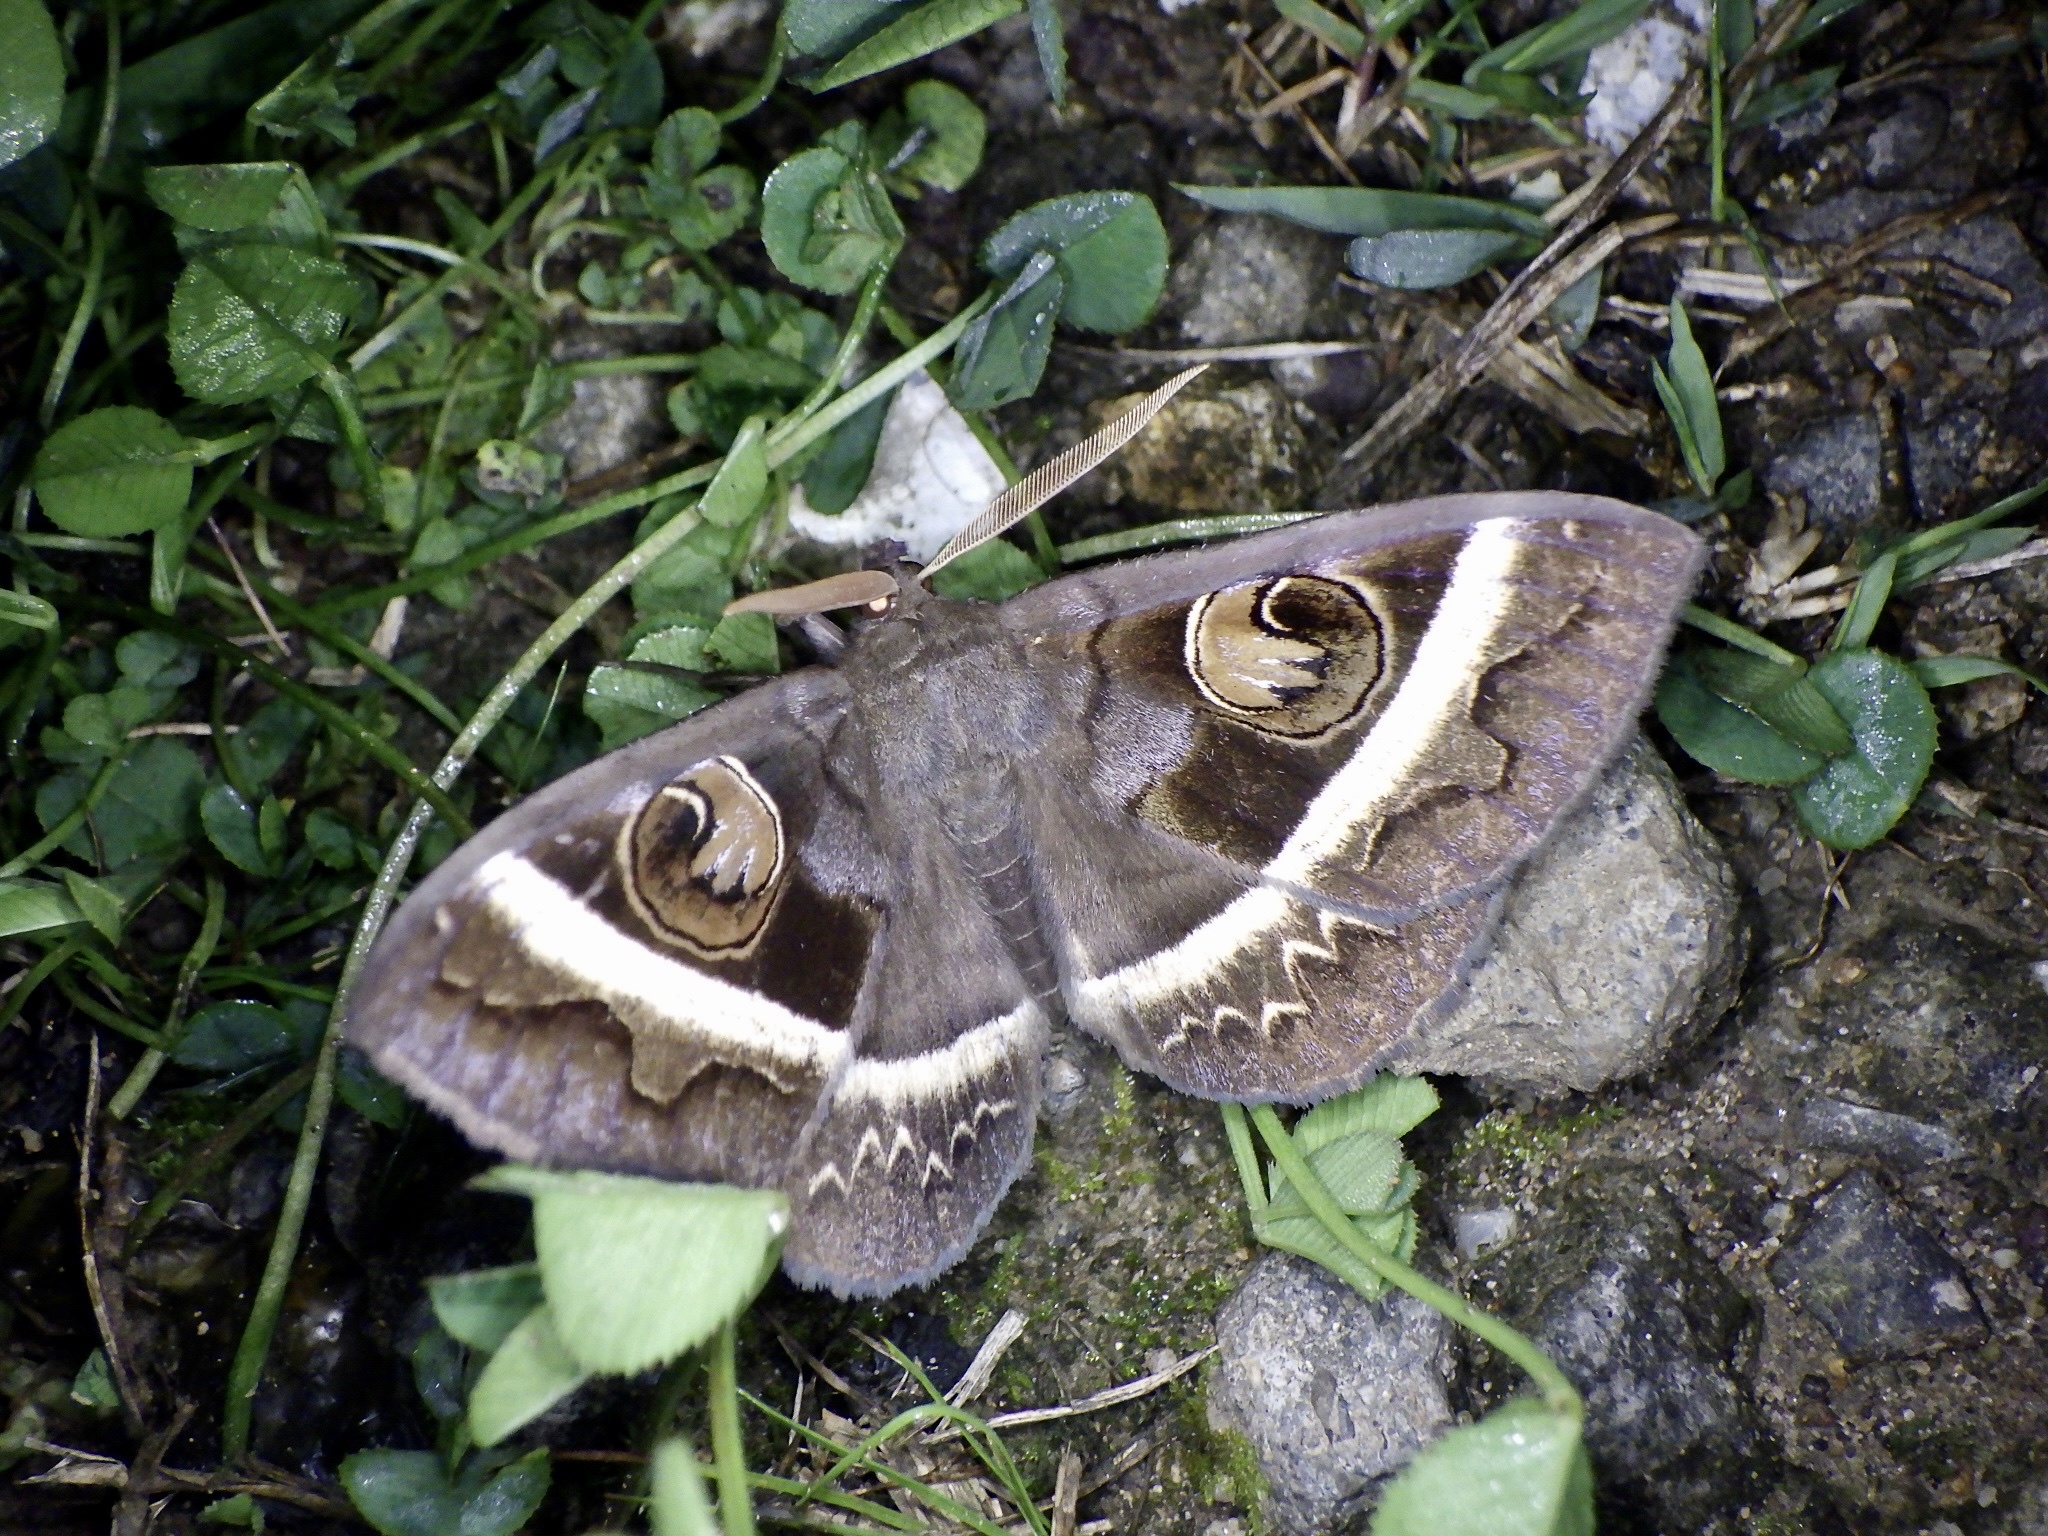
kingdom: Animalia
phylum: Arthropoda
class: Insecta
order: Lepidoptera
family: Erebidae
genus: Metopta
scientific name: Metopta rectifasciata
